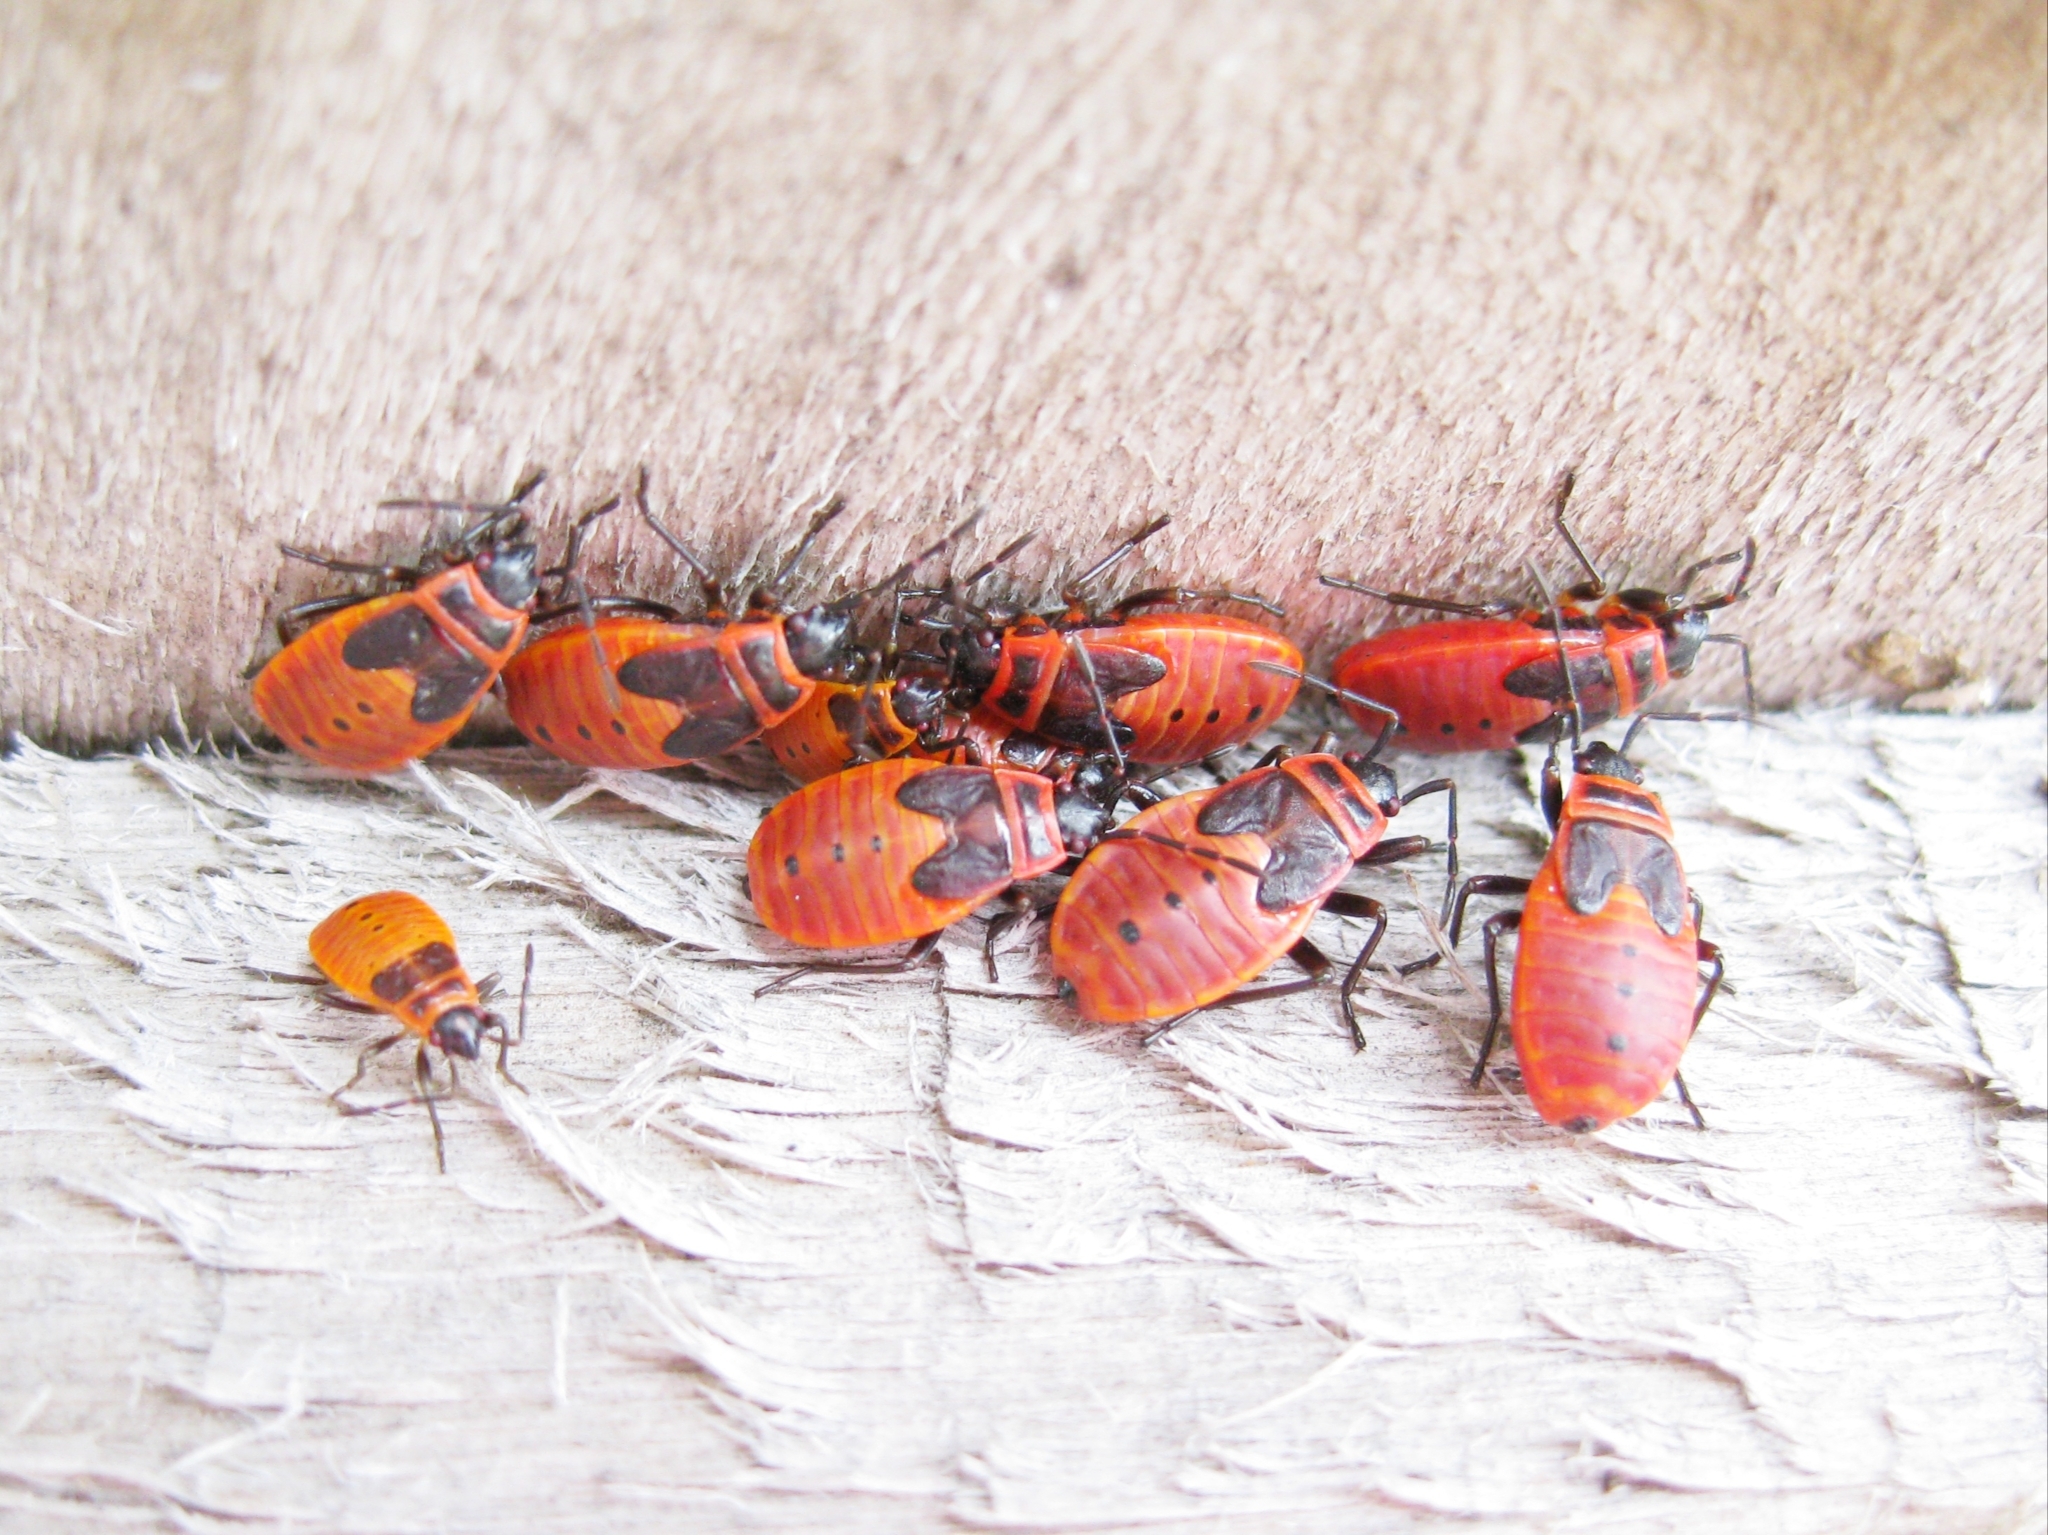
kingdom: Animalia
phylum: Arthropoda
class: Insecta
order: Hemiptera
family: Pyrrhocoridae
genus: Pyrrhocoris
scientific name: Pyrrhocoris apterus
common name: Firebug
